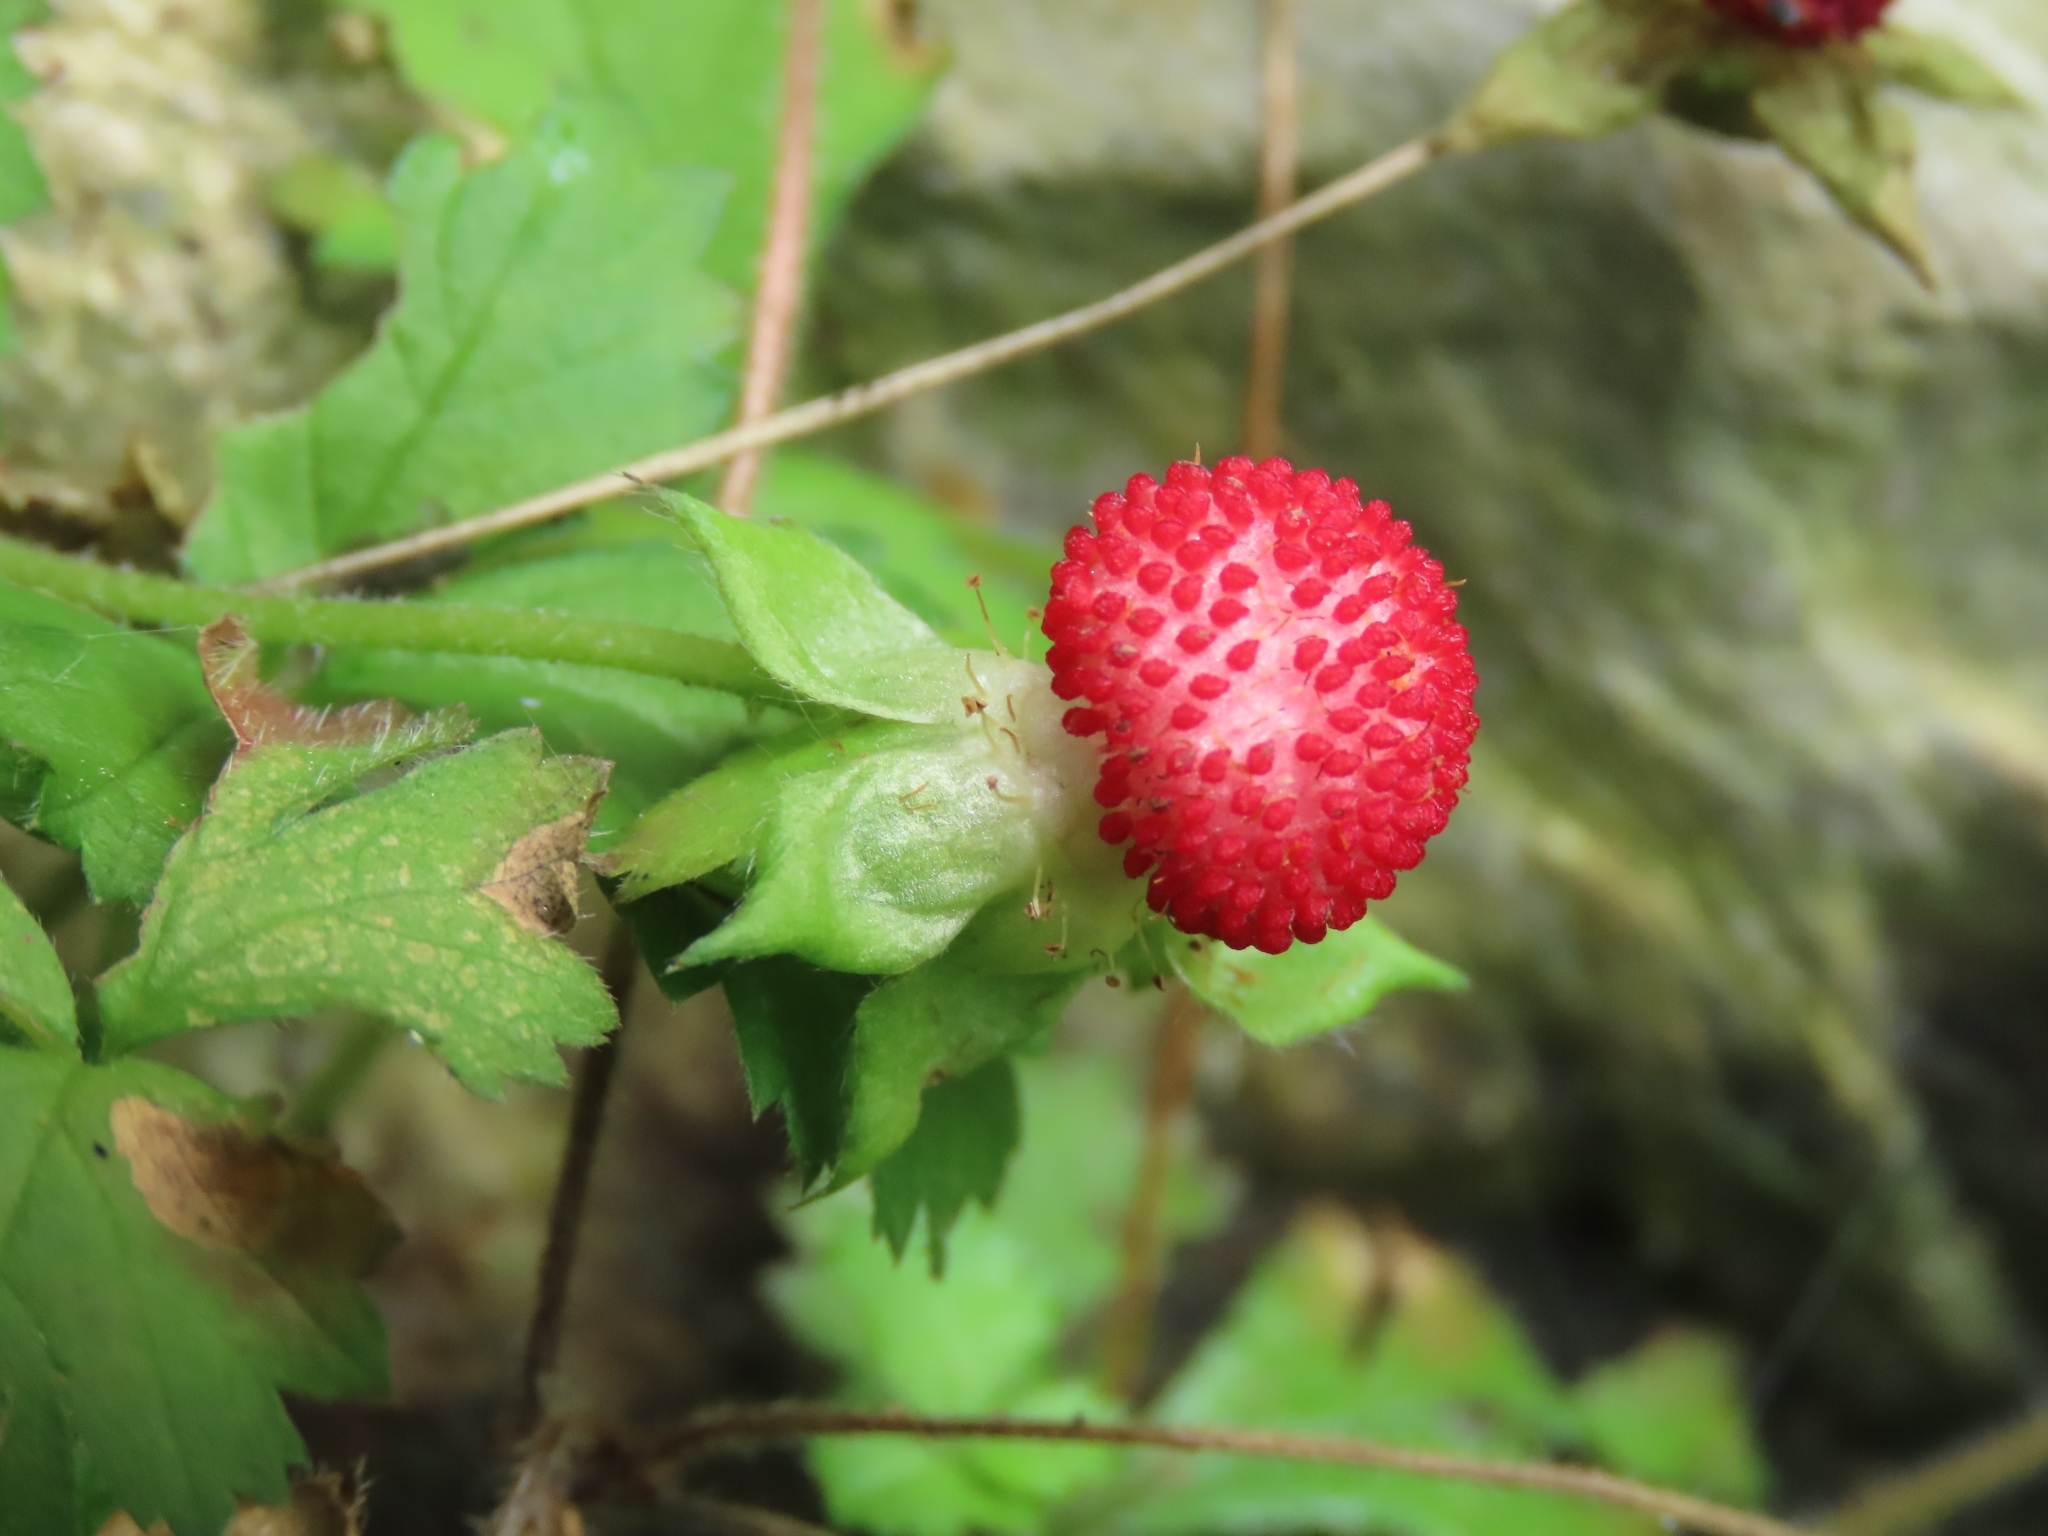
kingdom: Plantae
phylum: Tracheophyta
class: Magnoliopsida
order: Rosales
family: Rosaceae
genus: Potentilla
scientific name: Potentilla wallichiana
